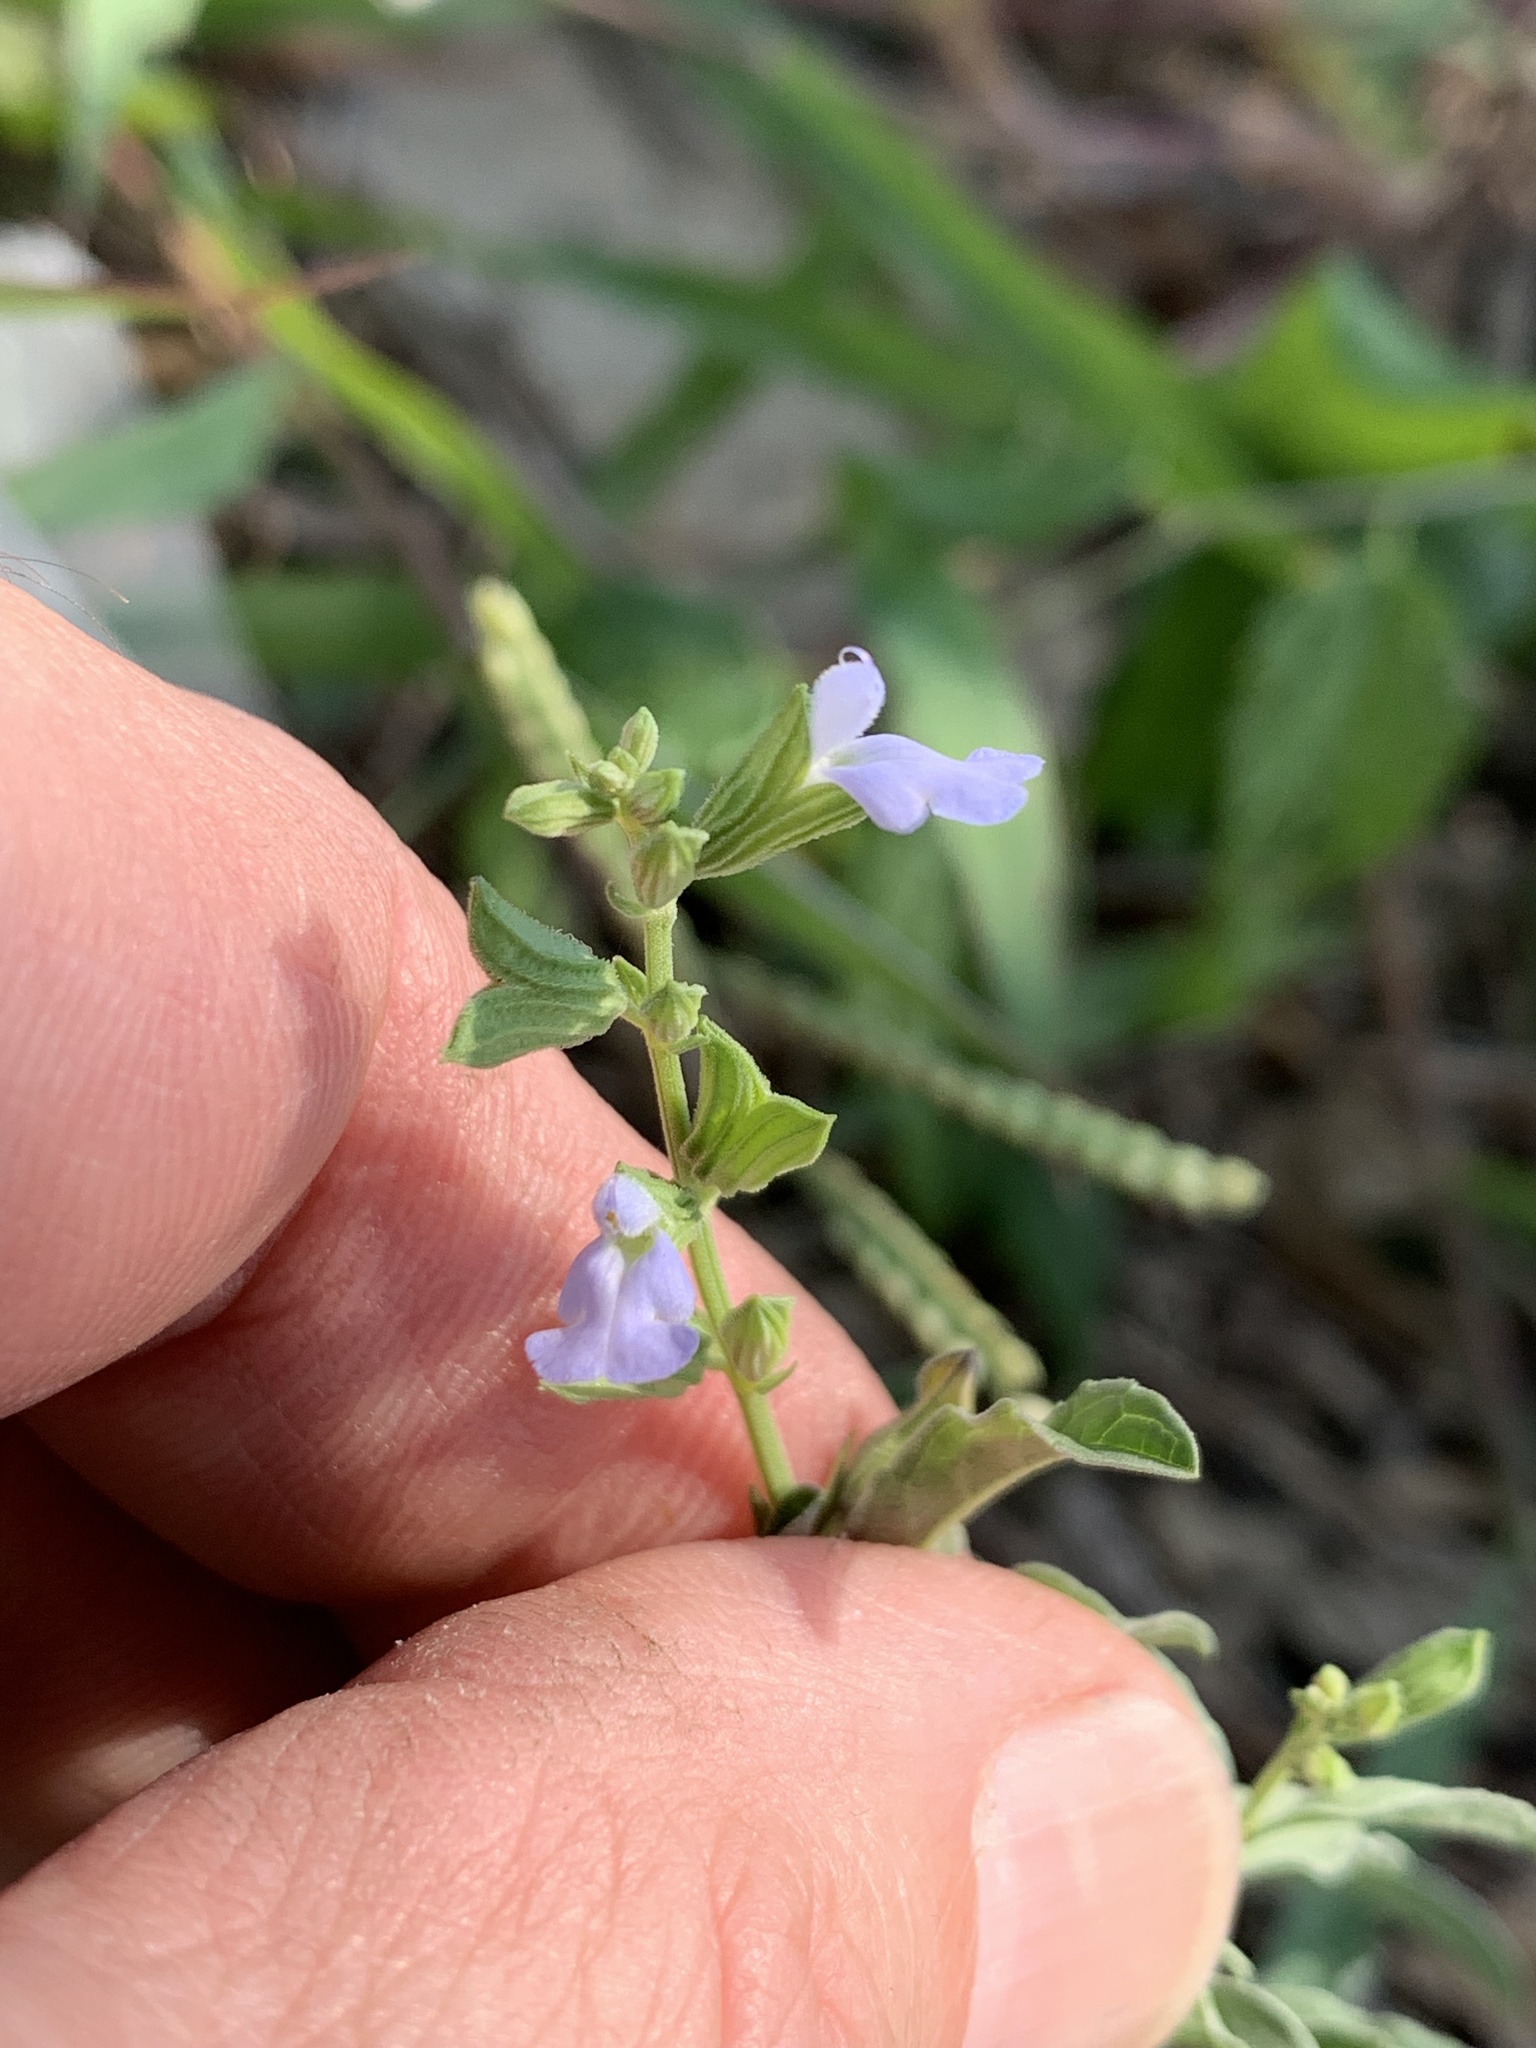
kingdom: Plantae
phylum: Tracheophyta
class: Magnoliopsida
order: Lamiales
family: Lamiaceae
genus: Salvia
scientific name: Salvia reflexa
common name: Mintweed
